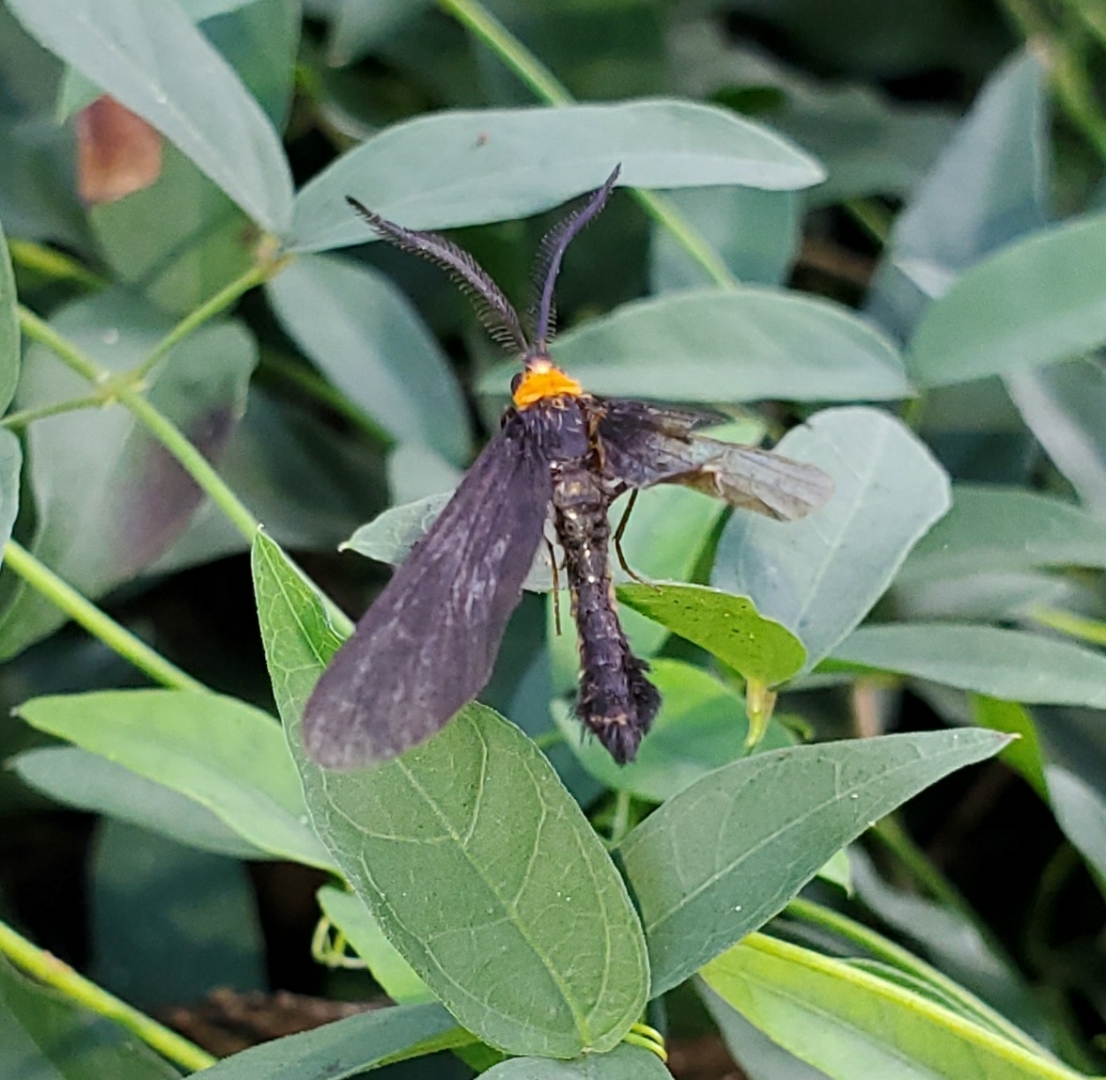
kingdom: Animalia
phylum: Arthropoda
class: Insecta
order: Lepidoptera
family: Zygaenidae
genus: Harrisina
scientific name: Harrisina americana
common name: Grapeleaf skeletonizer moth
